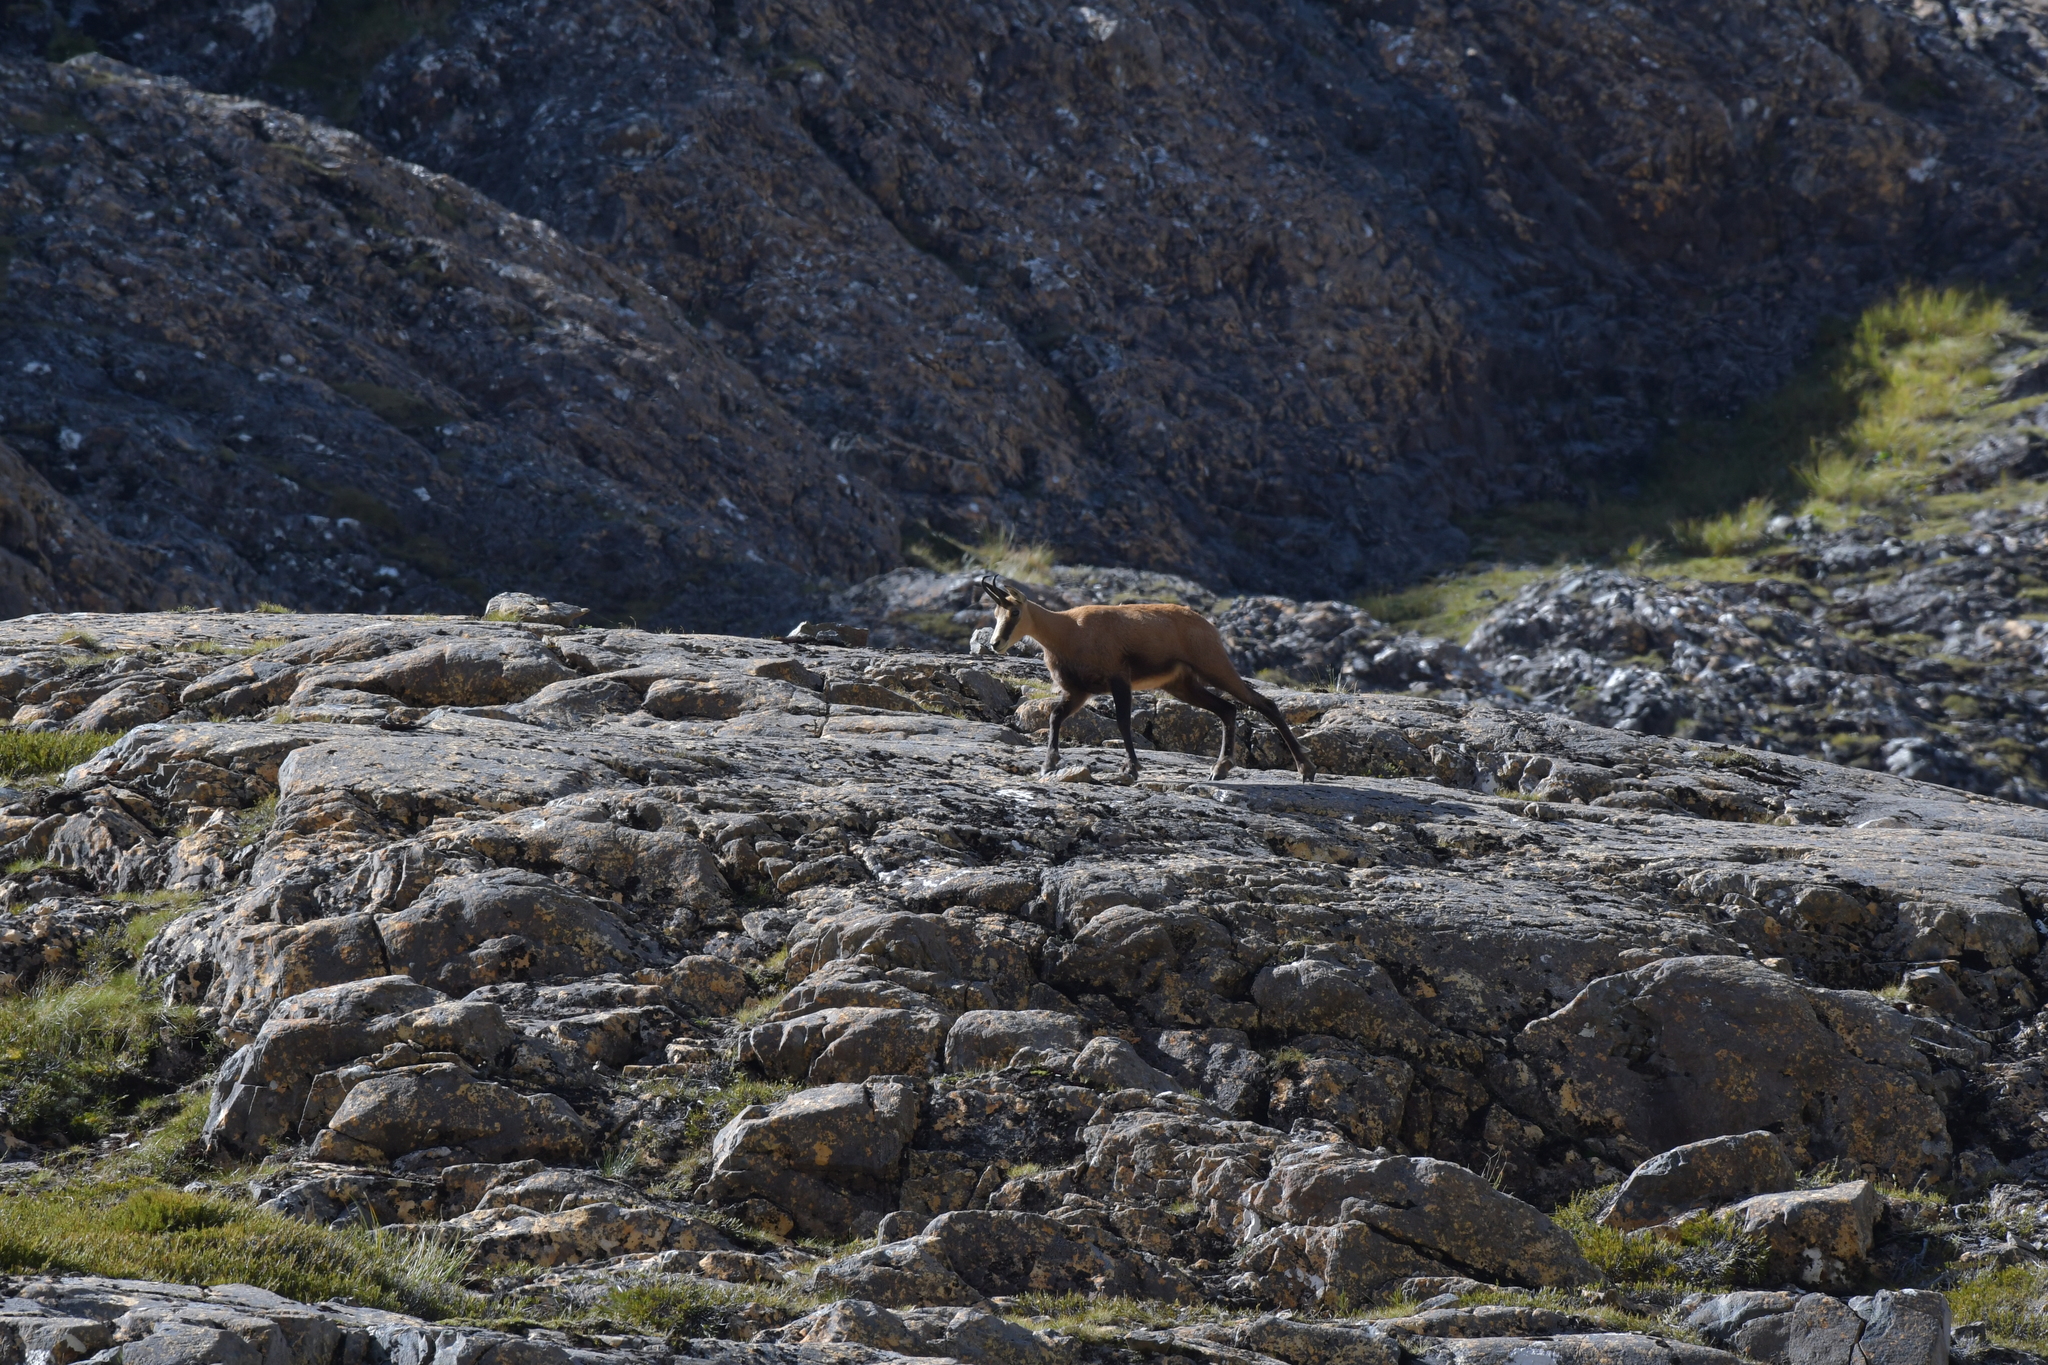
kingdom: Animalia
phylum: Chordata
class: Mammalia
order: Artiodactyla
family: Bovidae
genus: Rupicapra
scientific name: Rupicapra rupicapra
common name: Chamois
